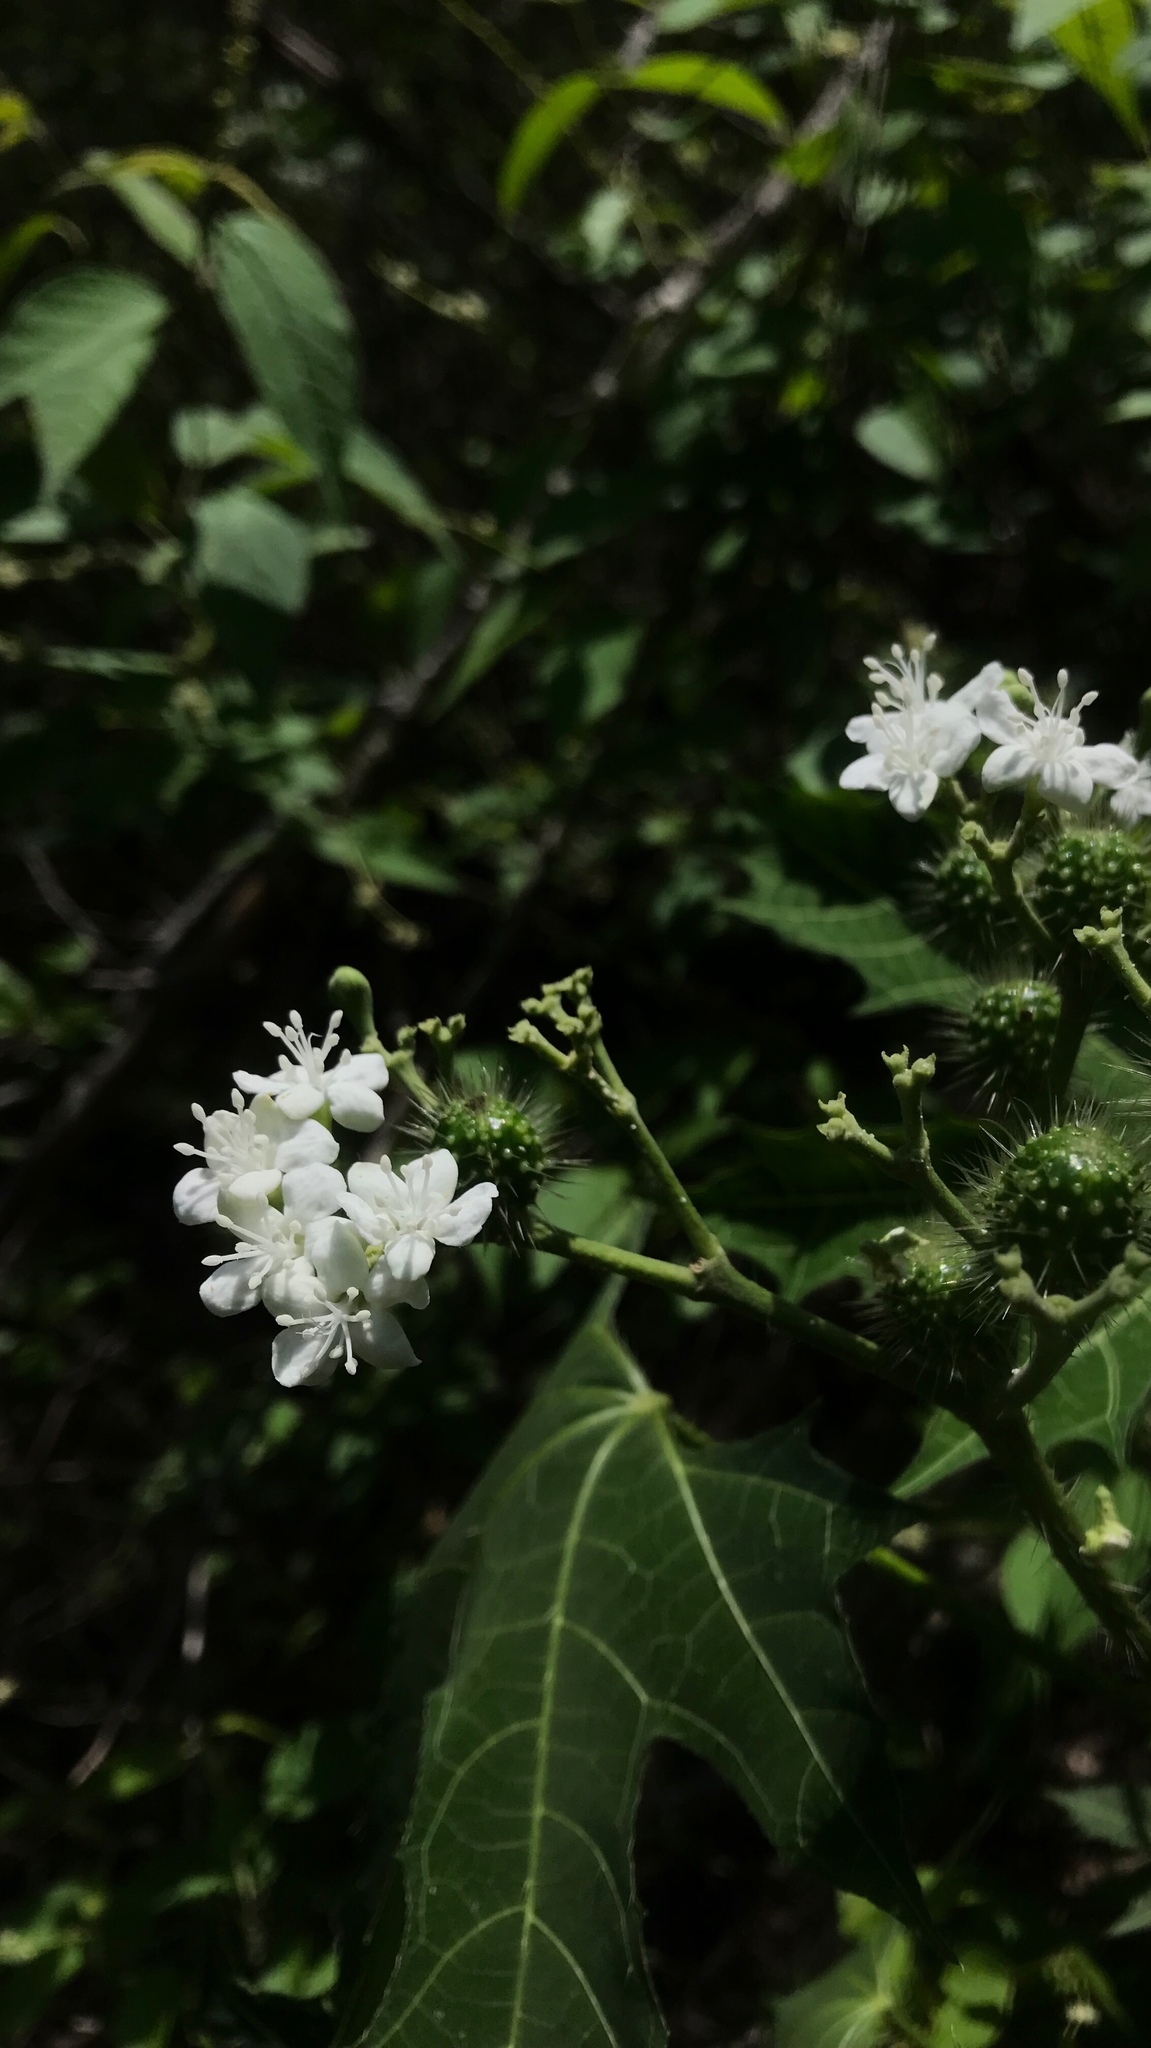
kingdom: Plantae
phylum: Tracheophyta
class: Magnoliopsida
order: Malpighiales
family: Euphorbiaceae
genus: Cnidoscolus
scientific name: Cnidoscolus aconitifolius
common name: Cabbage-star
